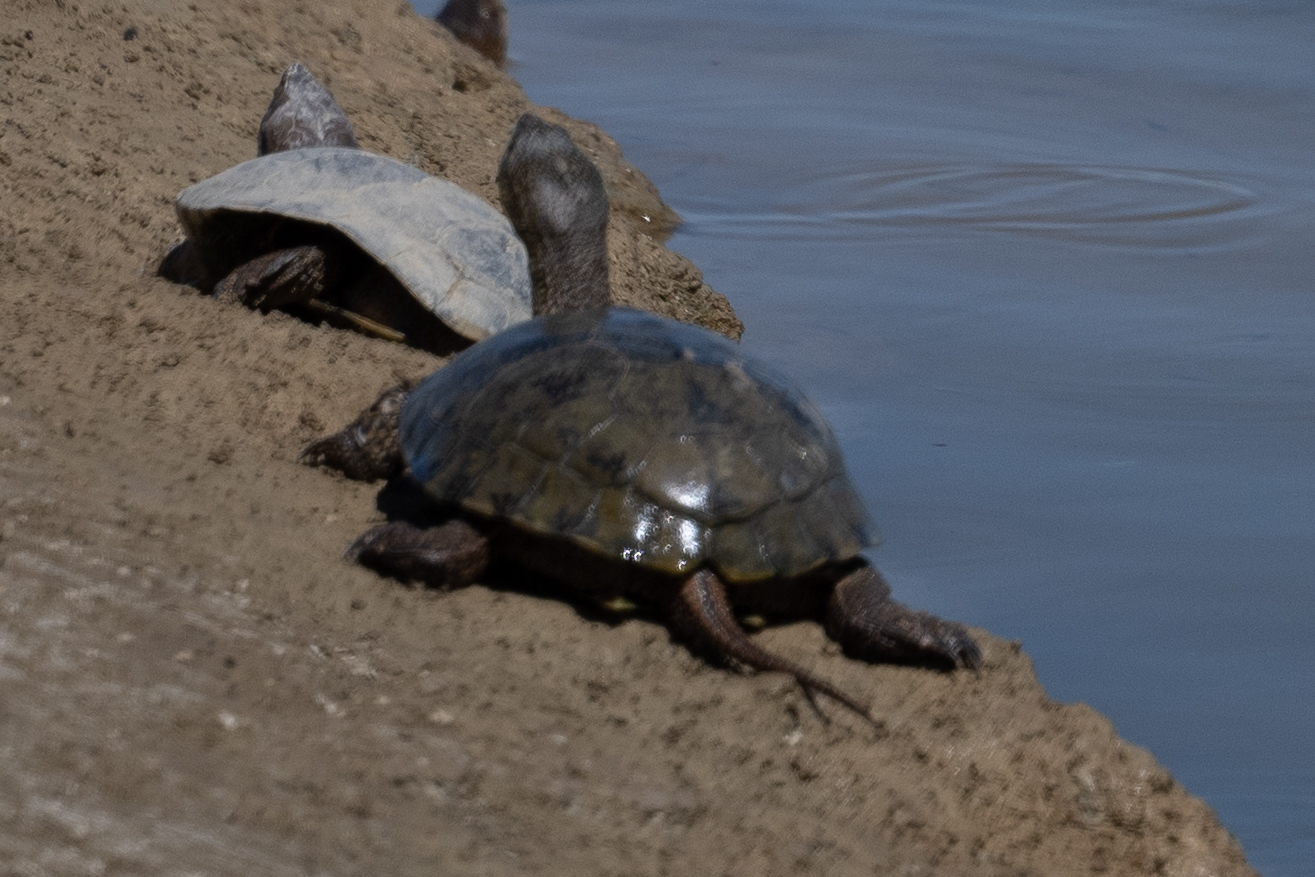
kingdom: Animalia
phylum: Chordata
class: Testudines
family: Emydidae
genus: Actinemys
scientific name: Actinemys marmorata
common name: Western pond turtle
